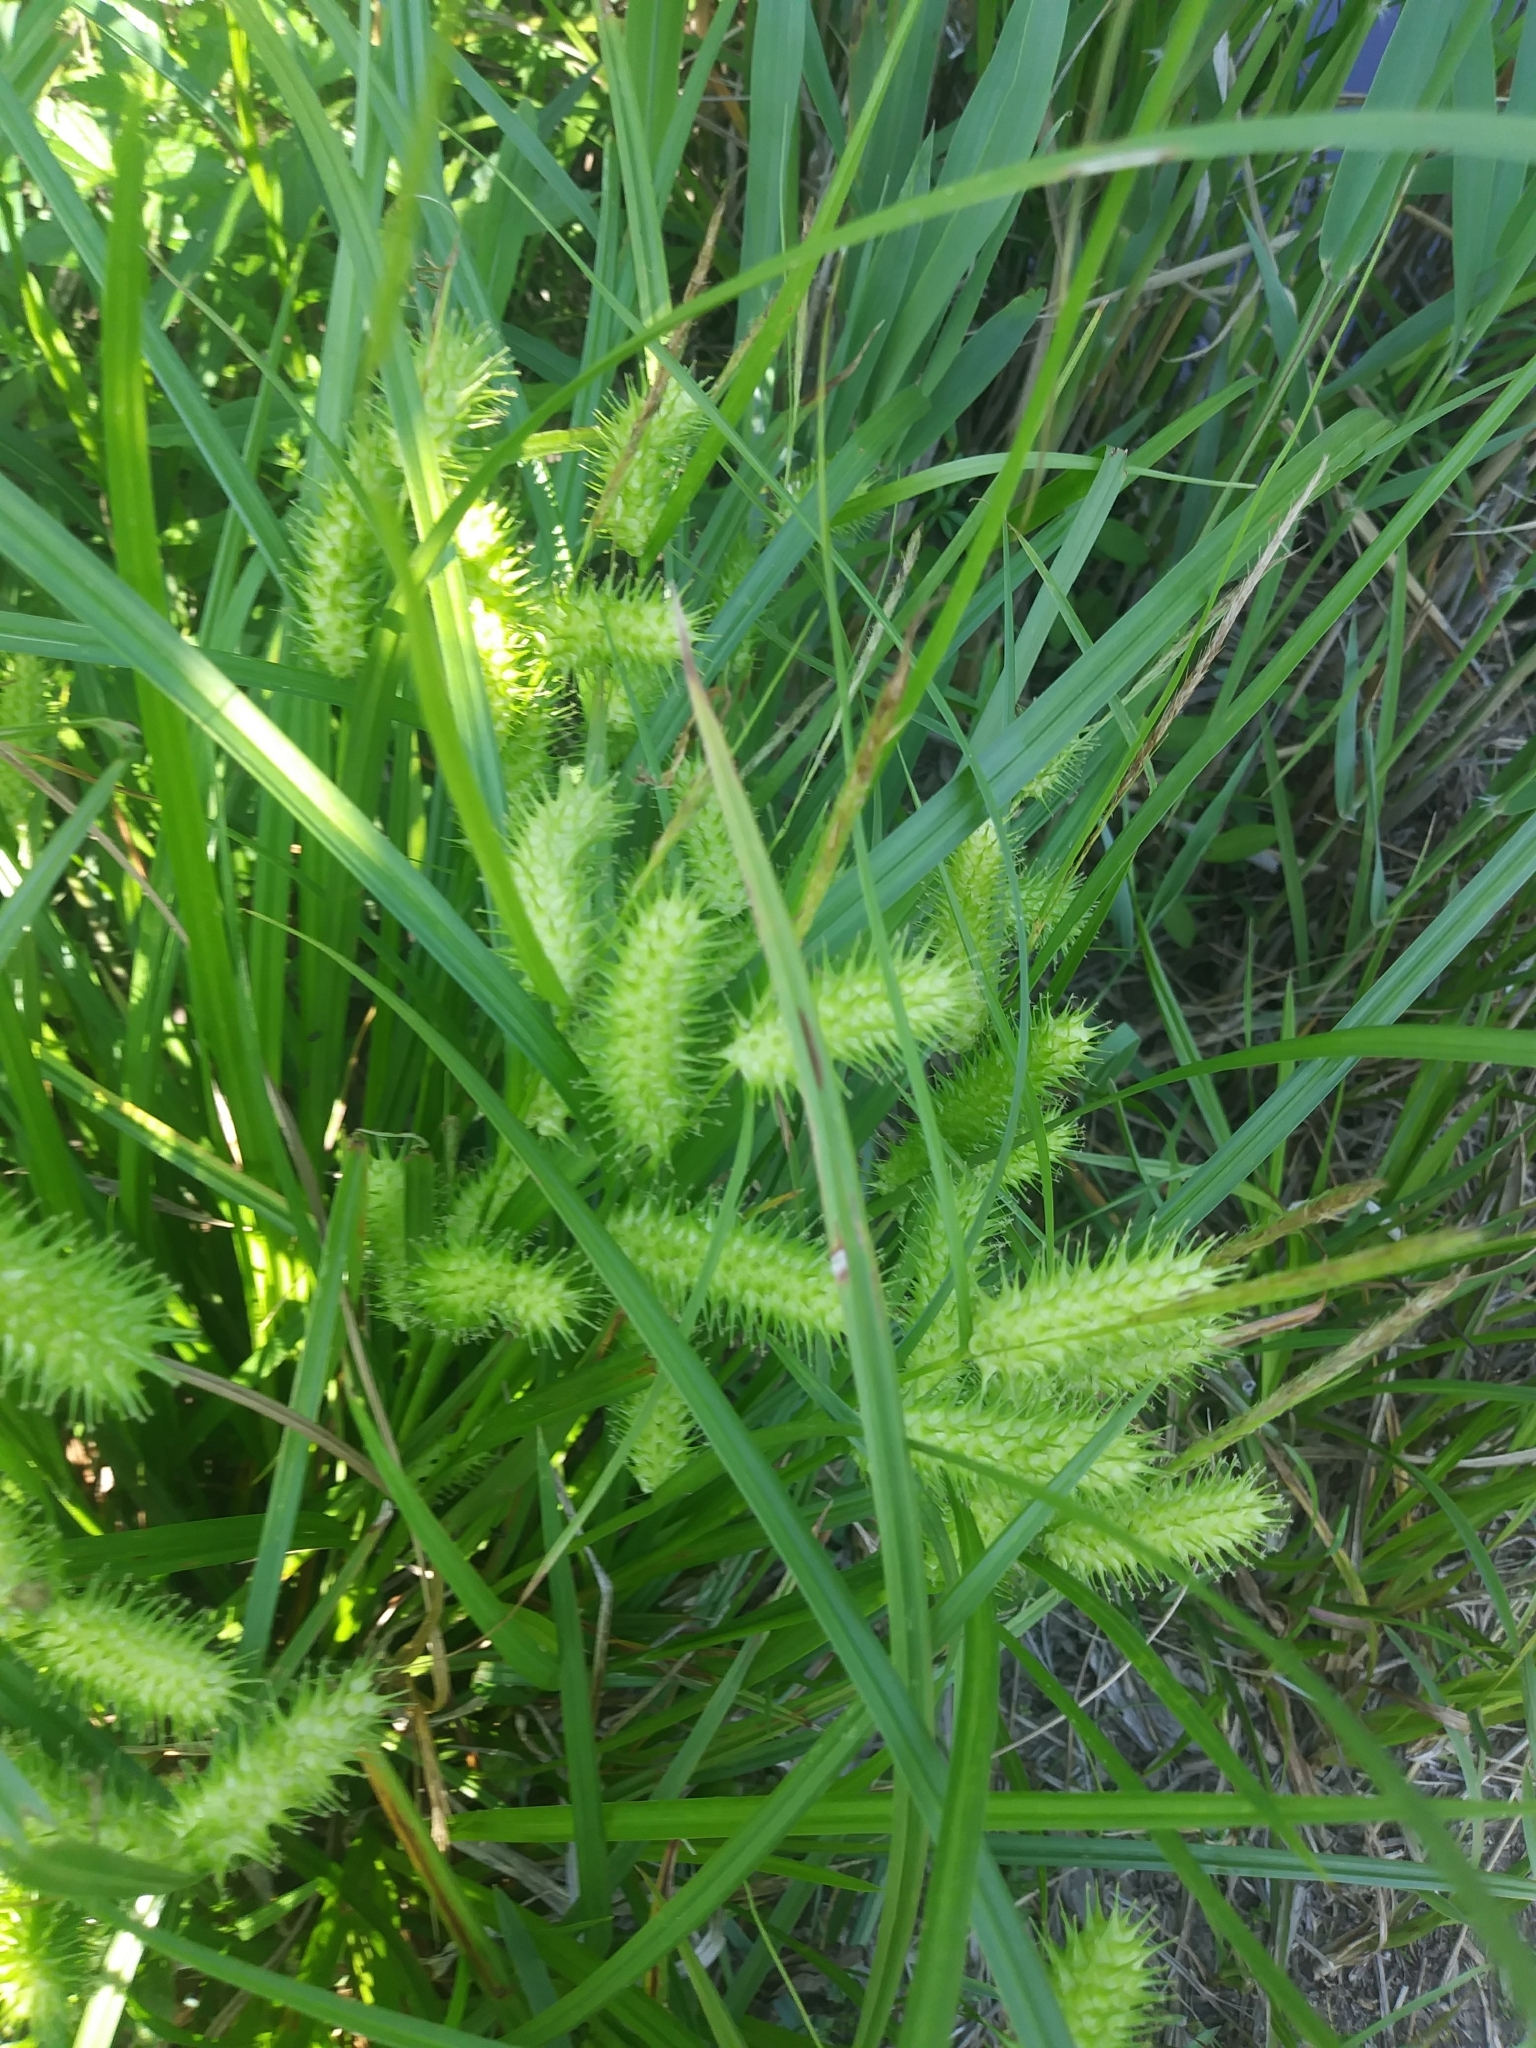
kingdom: Plantae
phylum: Tracheophyta
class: Liliopsida
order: Poales
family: Cyperaceae
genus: Carex
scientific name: Carex lurida
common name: Sallow sedge
